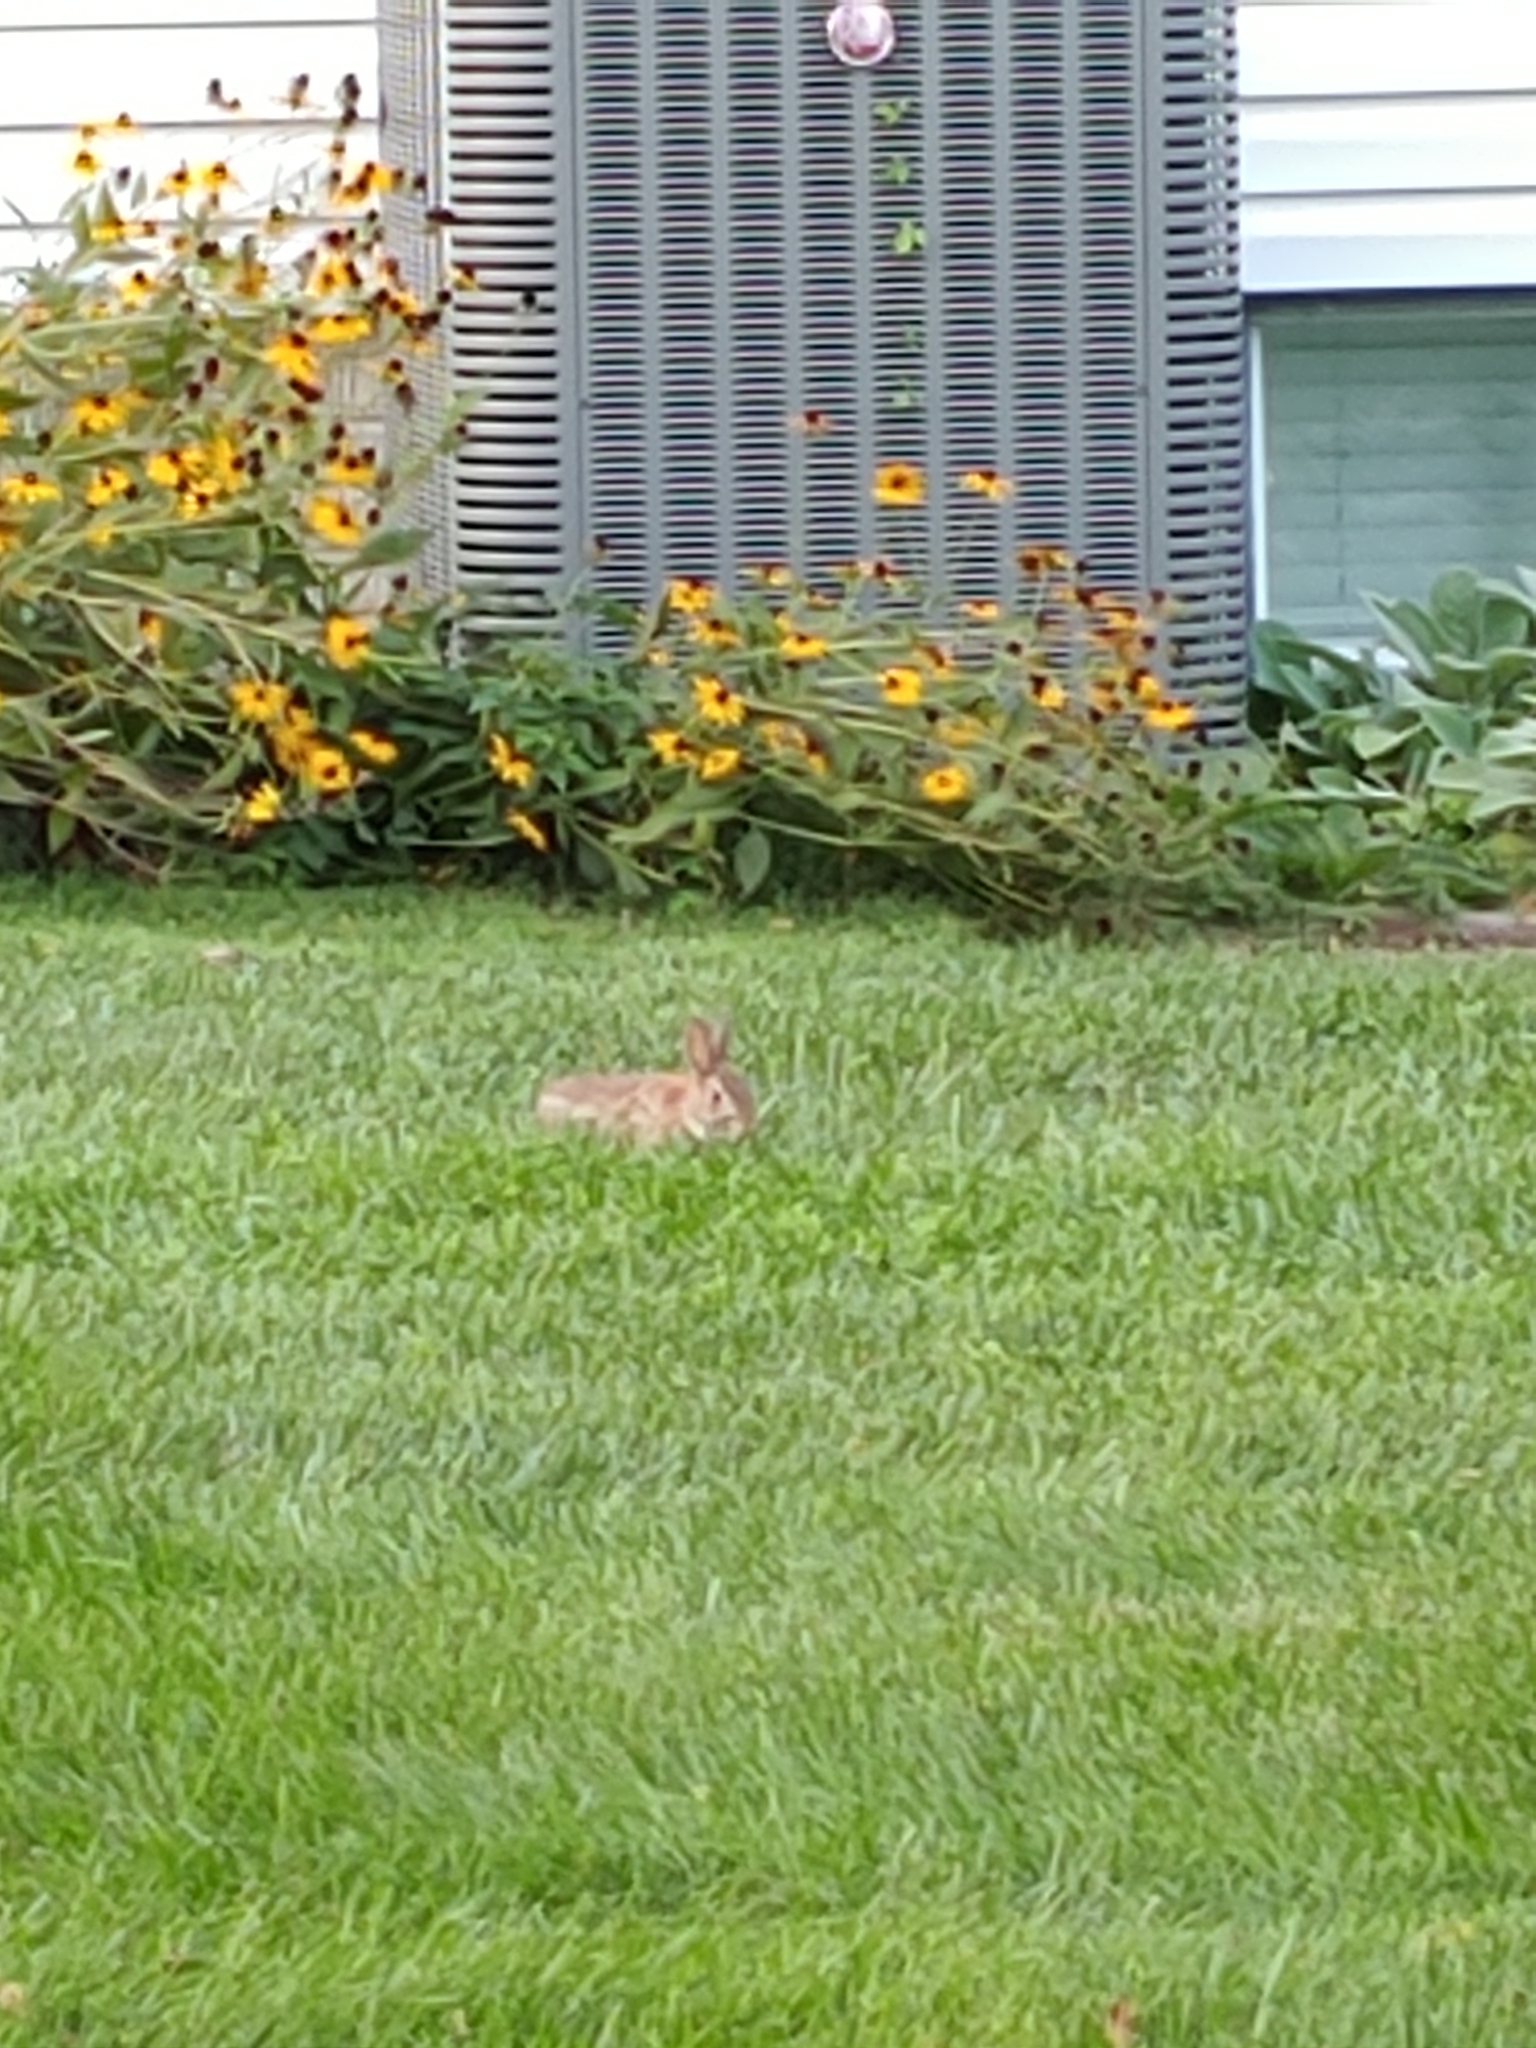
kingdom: Animalia
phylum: Chordata
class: Mammalia
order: Lagomorpha
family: Leporidae
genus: Sylvilagus
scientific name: Sylvilagus floridanus
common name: Eastern cottontail
